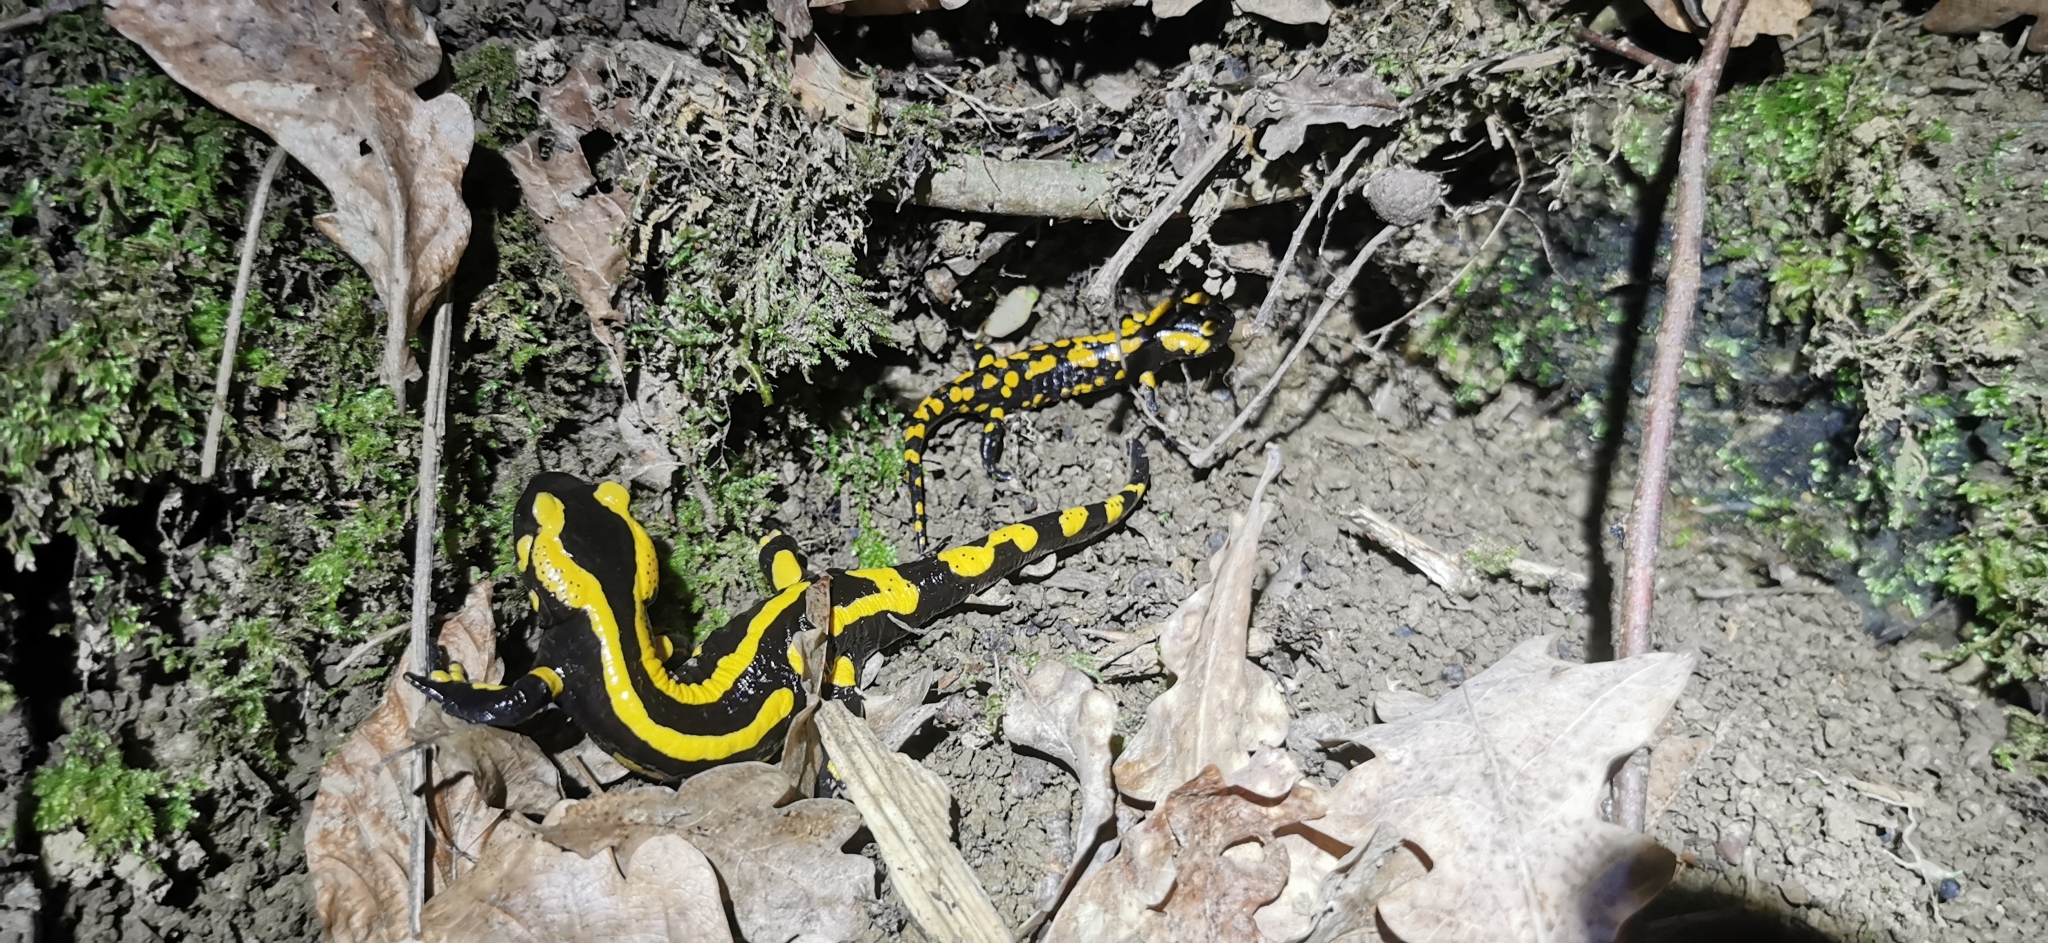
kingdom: Animalia
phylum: Chordata
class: Amphibia
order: Caudata
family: Salamandridae
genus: Salamandra
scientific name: Salamandra salamandra
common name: Fire salamander
